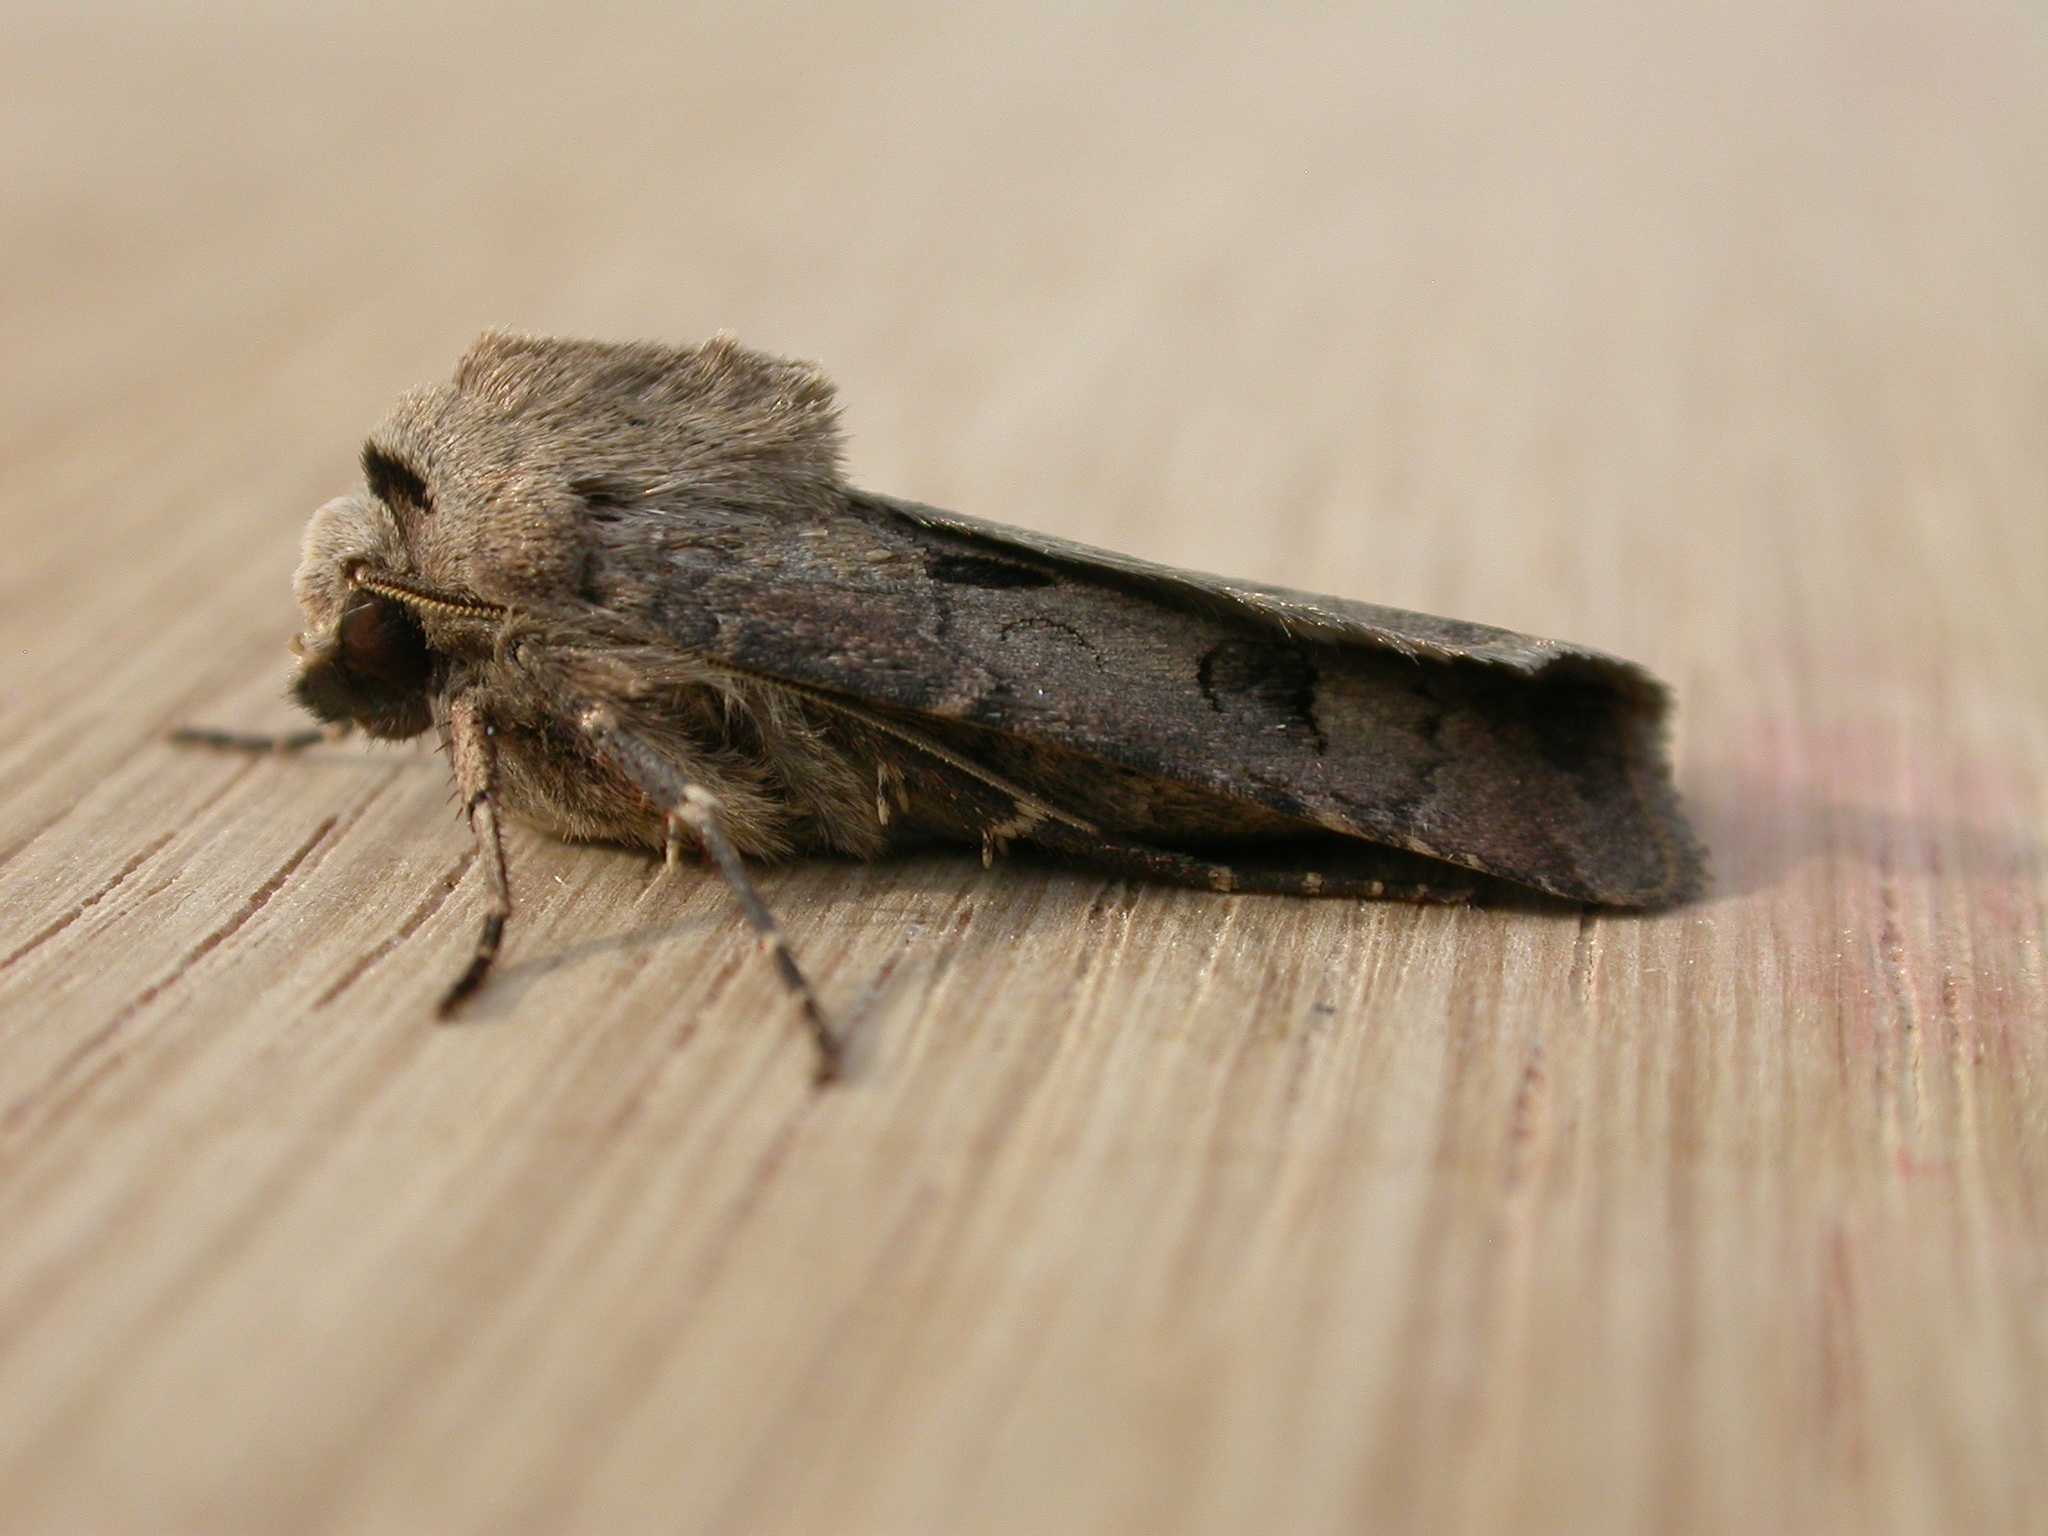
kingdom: Animalia
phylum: Arthropoda
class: Insecta
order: Lepidoptera
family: Noctuidae
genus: Agrotis
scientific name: Agrotis exclamationis
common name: Heart and dart
